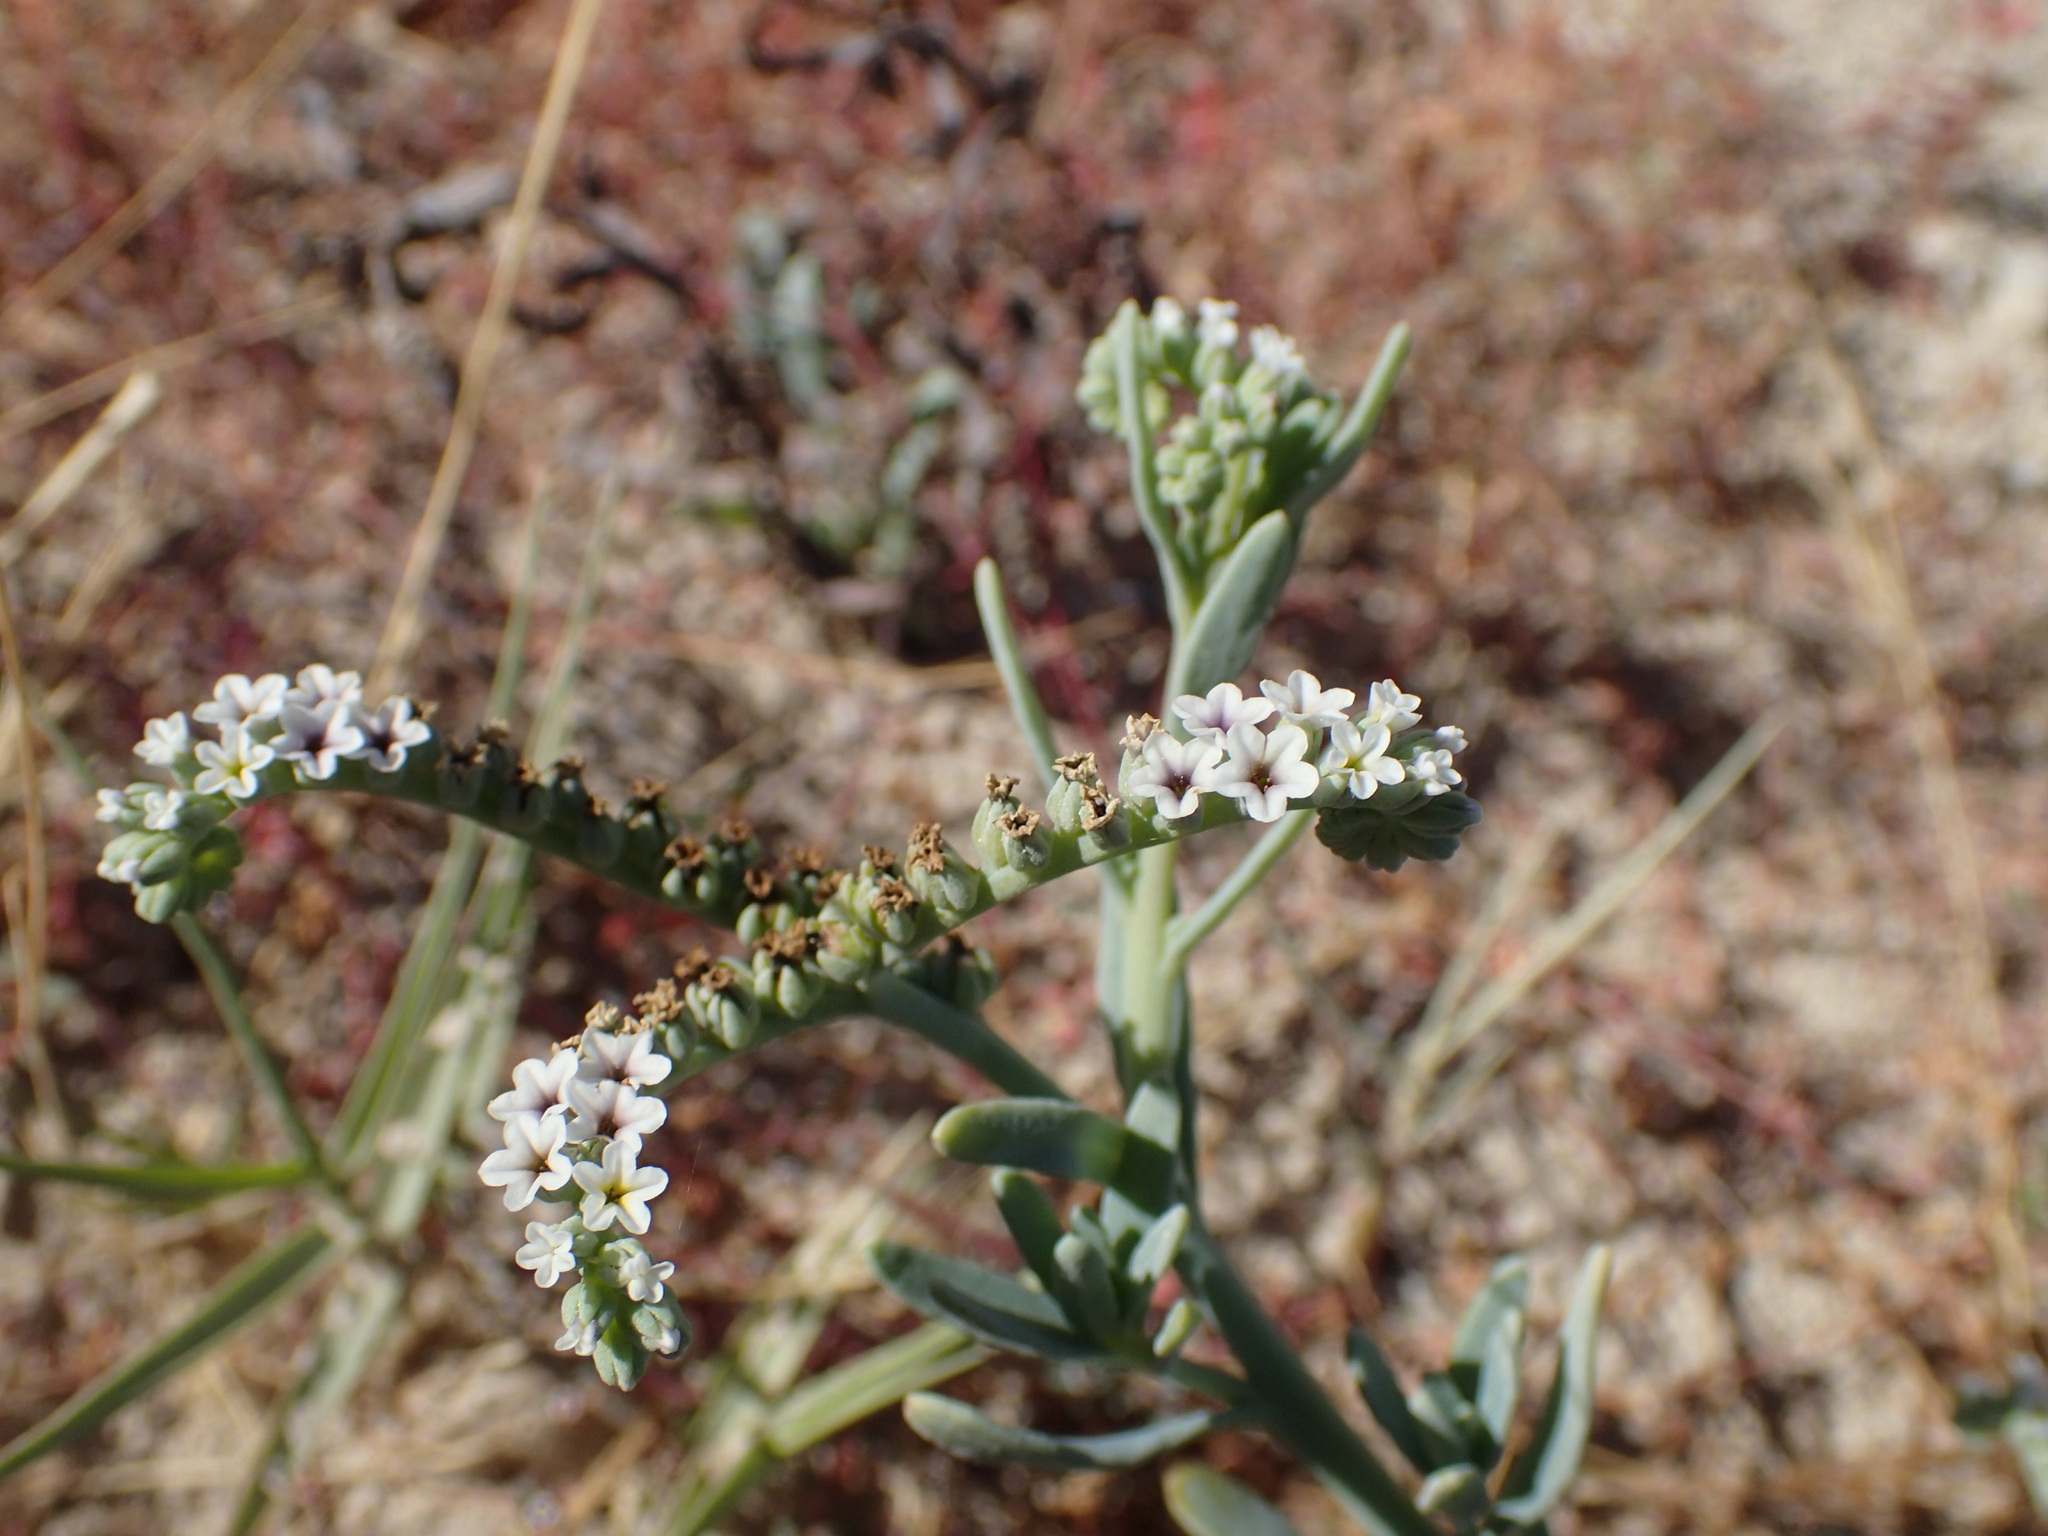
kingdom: Plantae
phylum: Tracheophyta
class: Magnoliopsida
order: Boraginales
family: Heliotropiaceae
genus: Heliotropium
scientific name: Heliotropium curassavicum
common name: Seaside heliotrope
